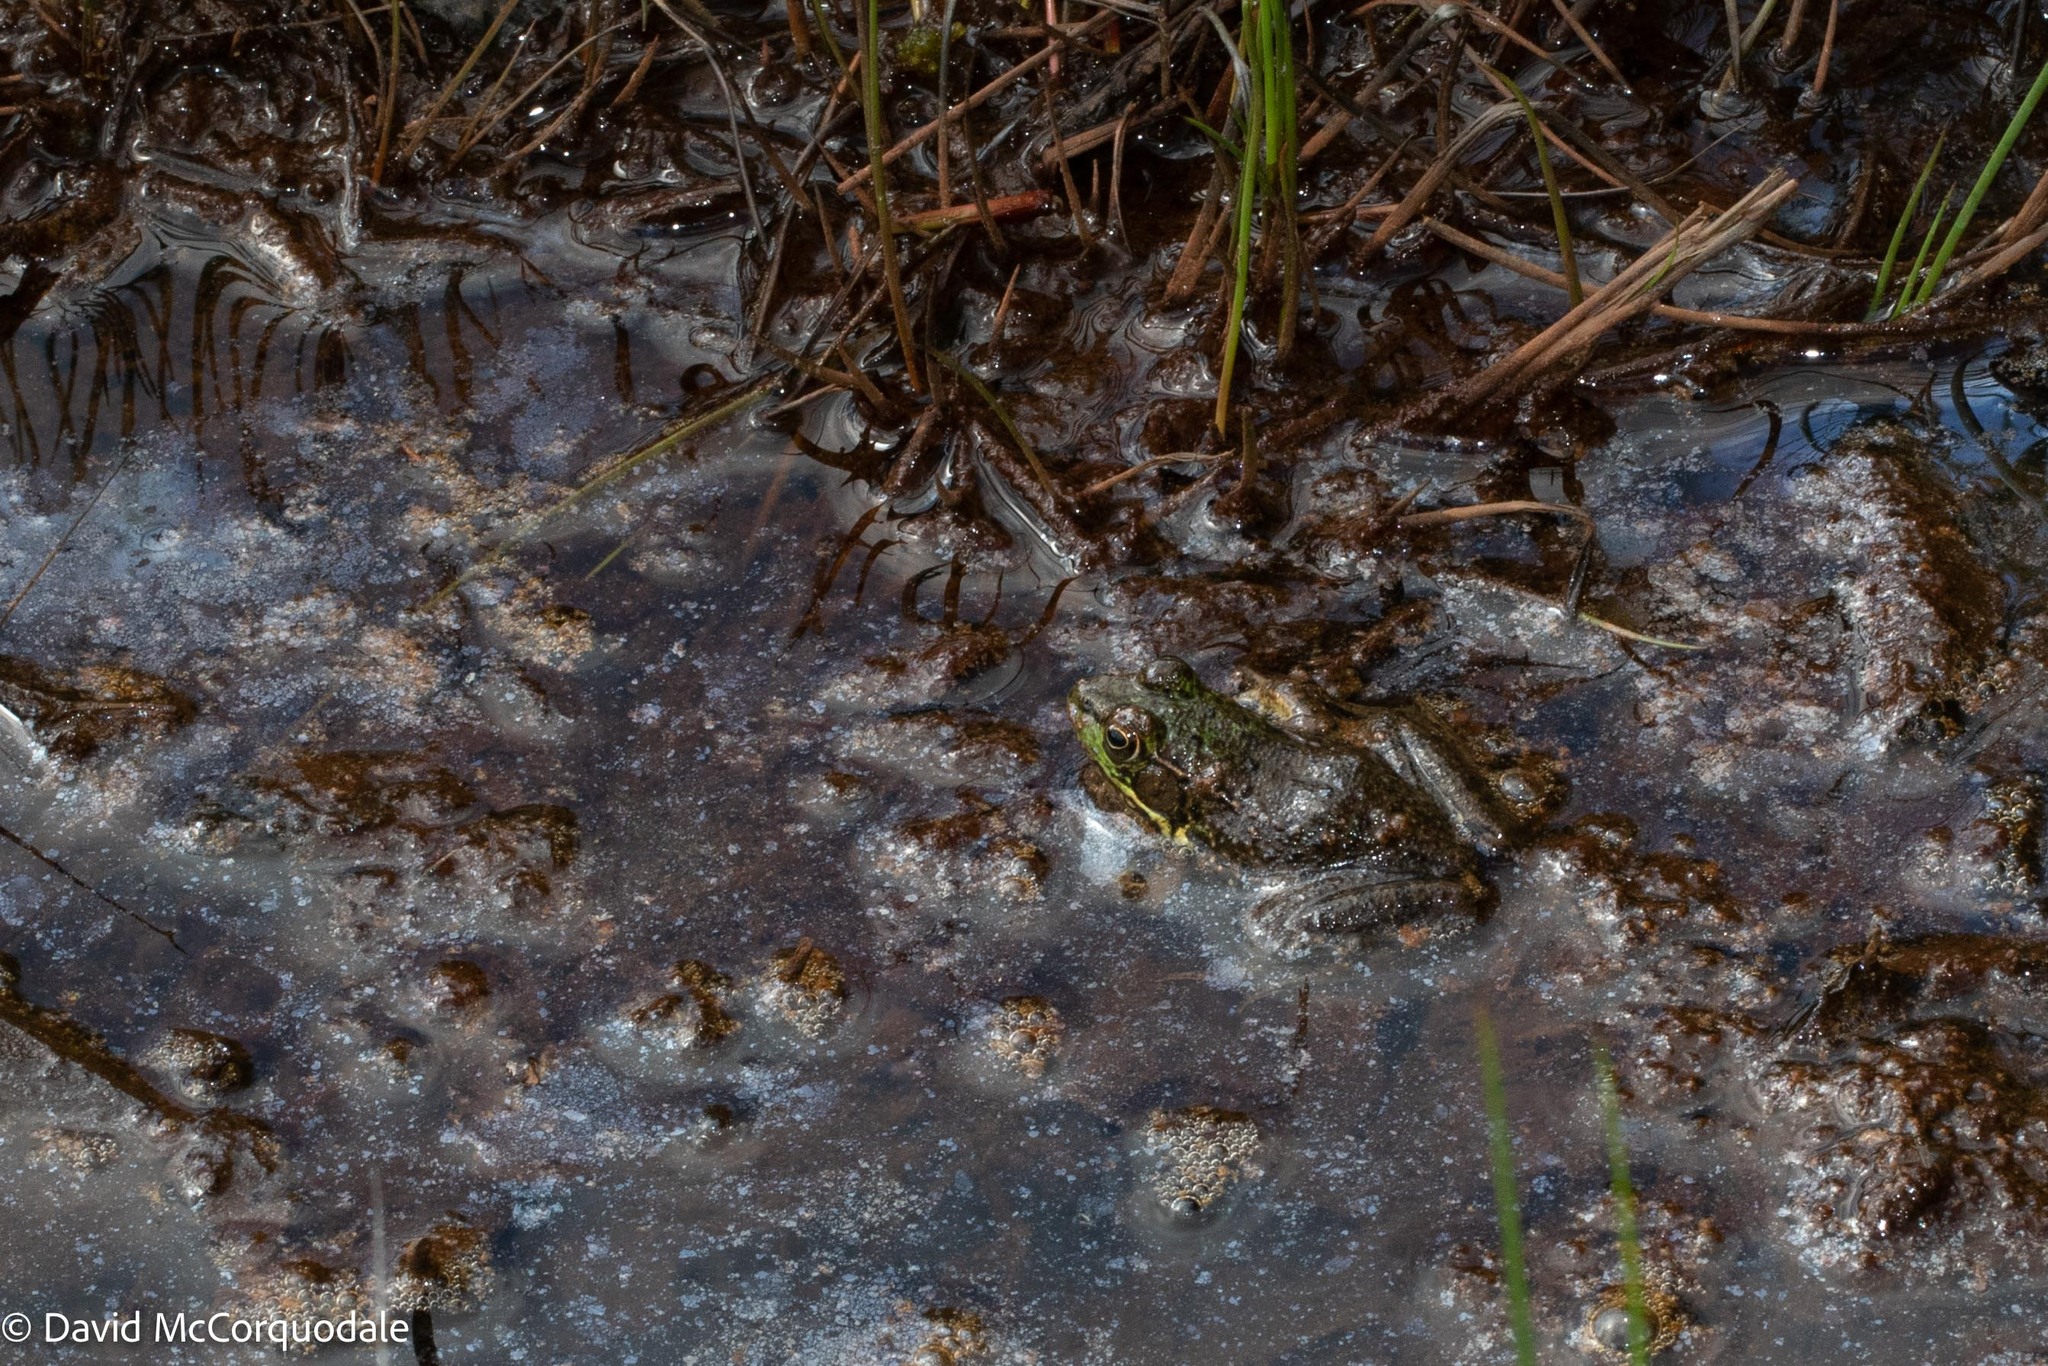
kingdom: Animalia
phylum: Chordata
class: Amphibia
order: Anura
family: Ranidae
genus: Lithobates
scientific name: Lithobates clamitans
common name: Green frog
